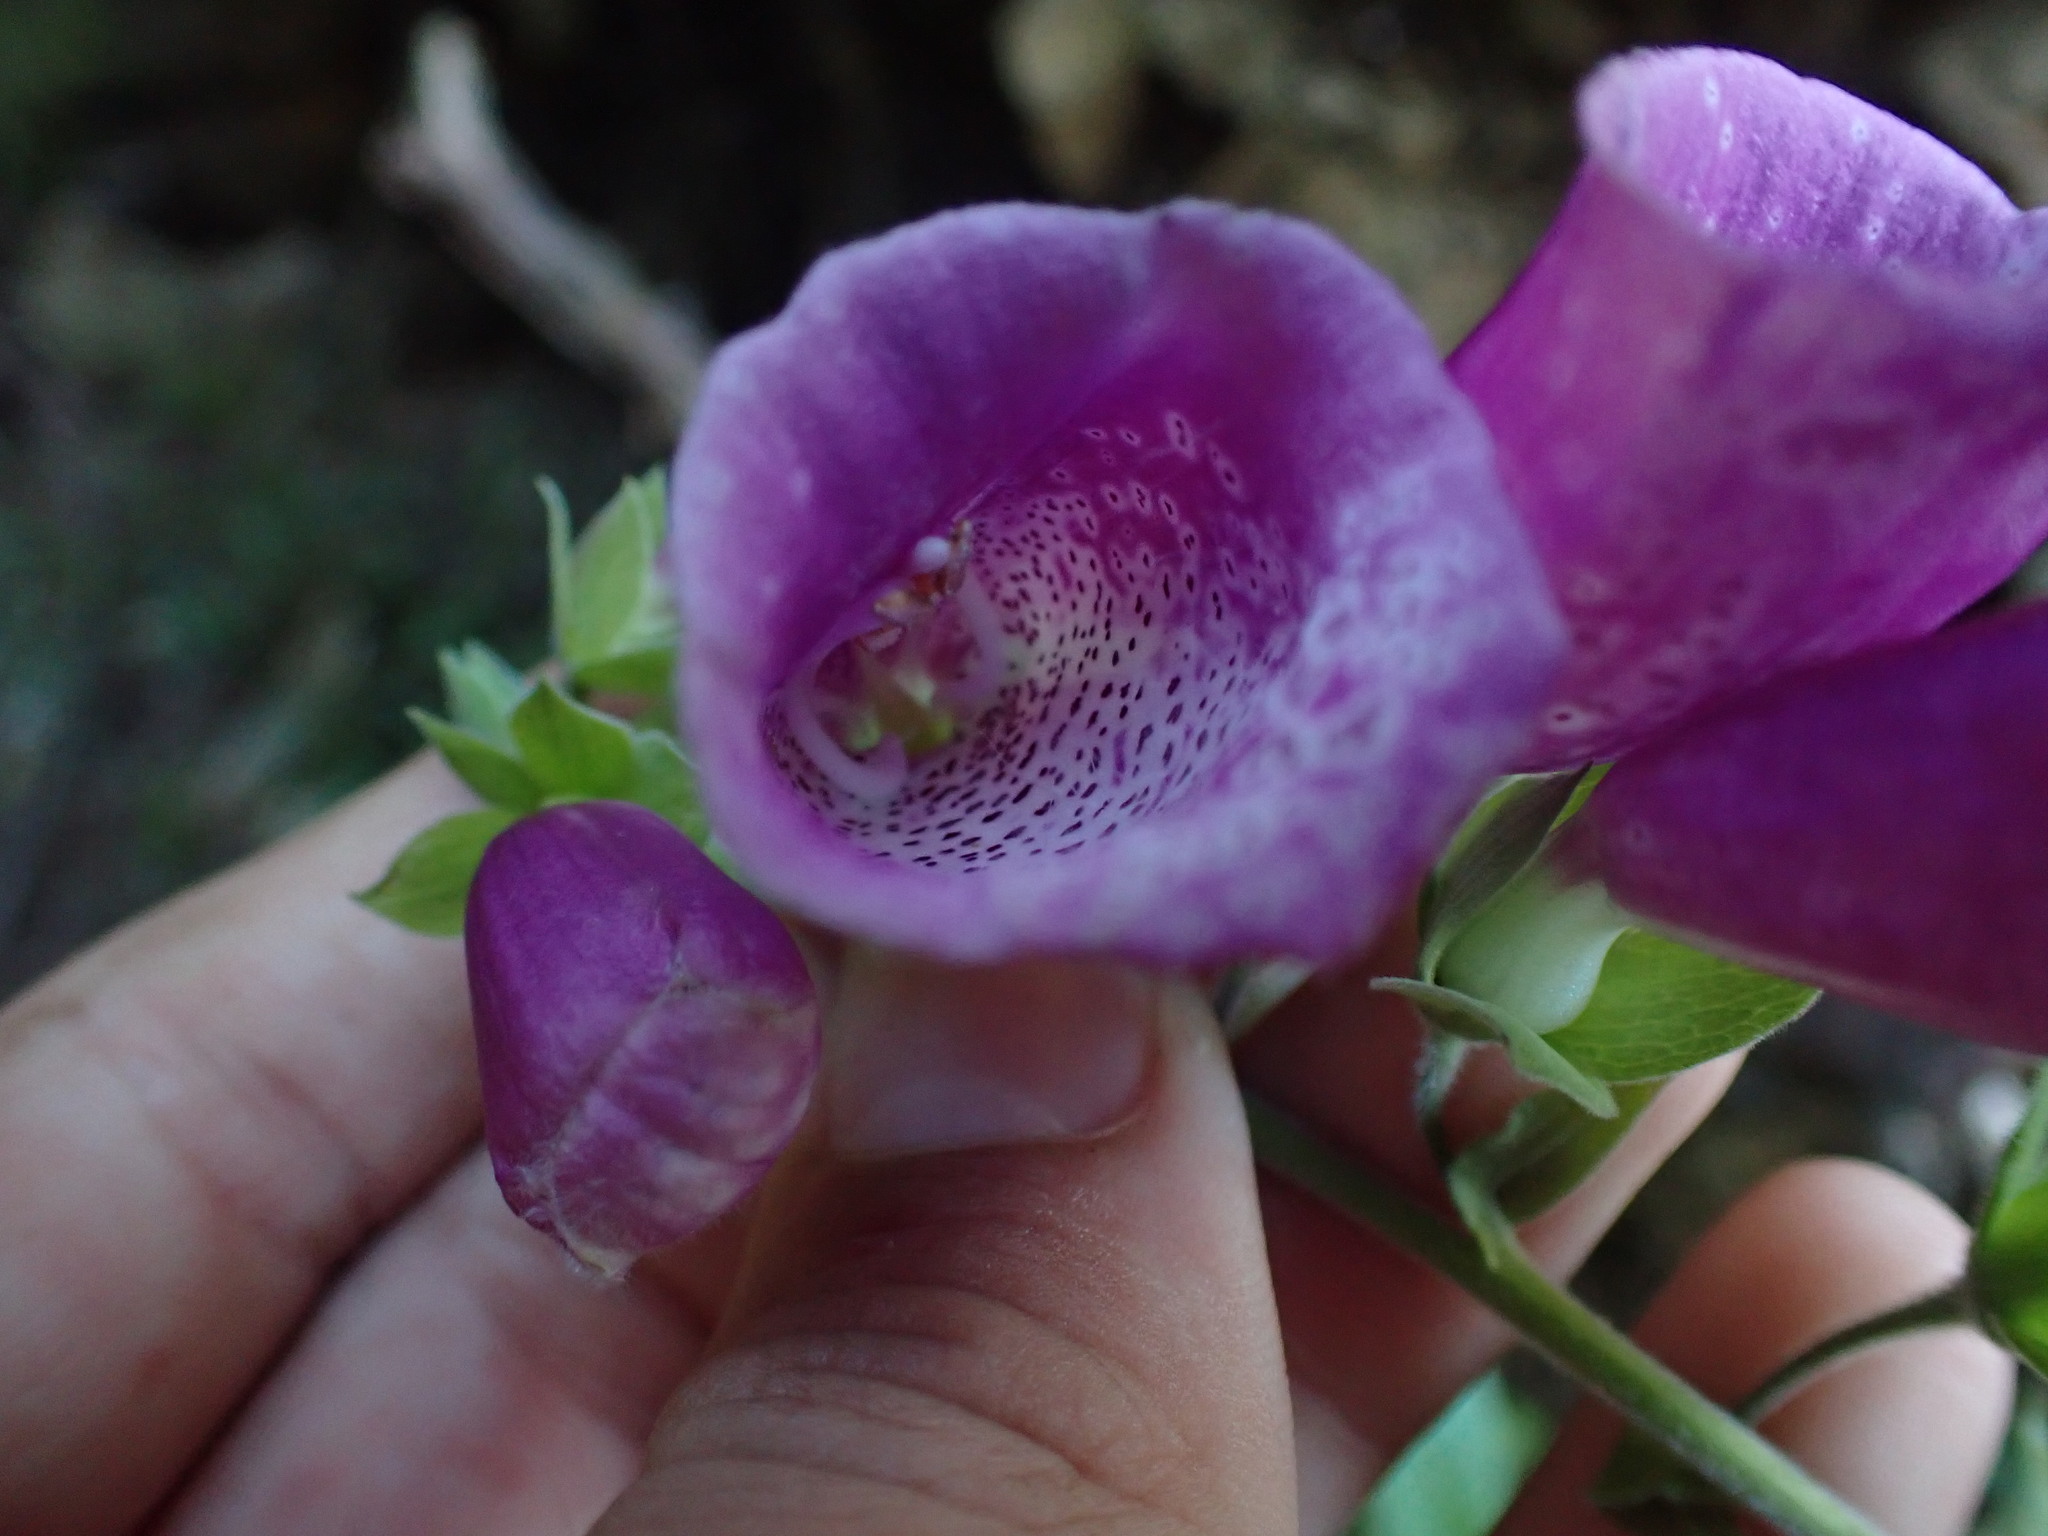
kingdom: Plantae
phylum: Tracheophyta
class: Magnoliopsida
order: Lamiales
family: Plantaginaceae
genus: Digitalis
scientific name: Digitalis purpurea
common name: Foxglove
